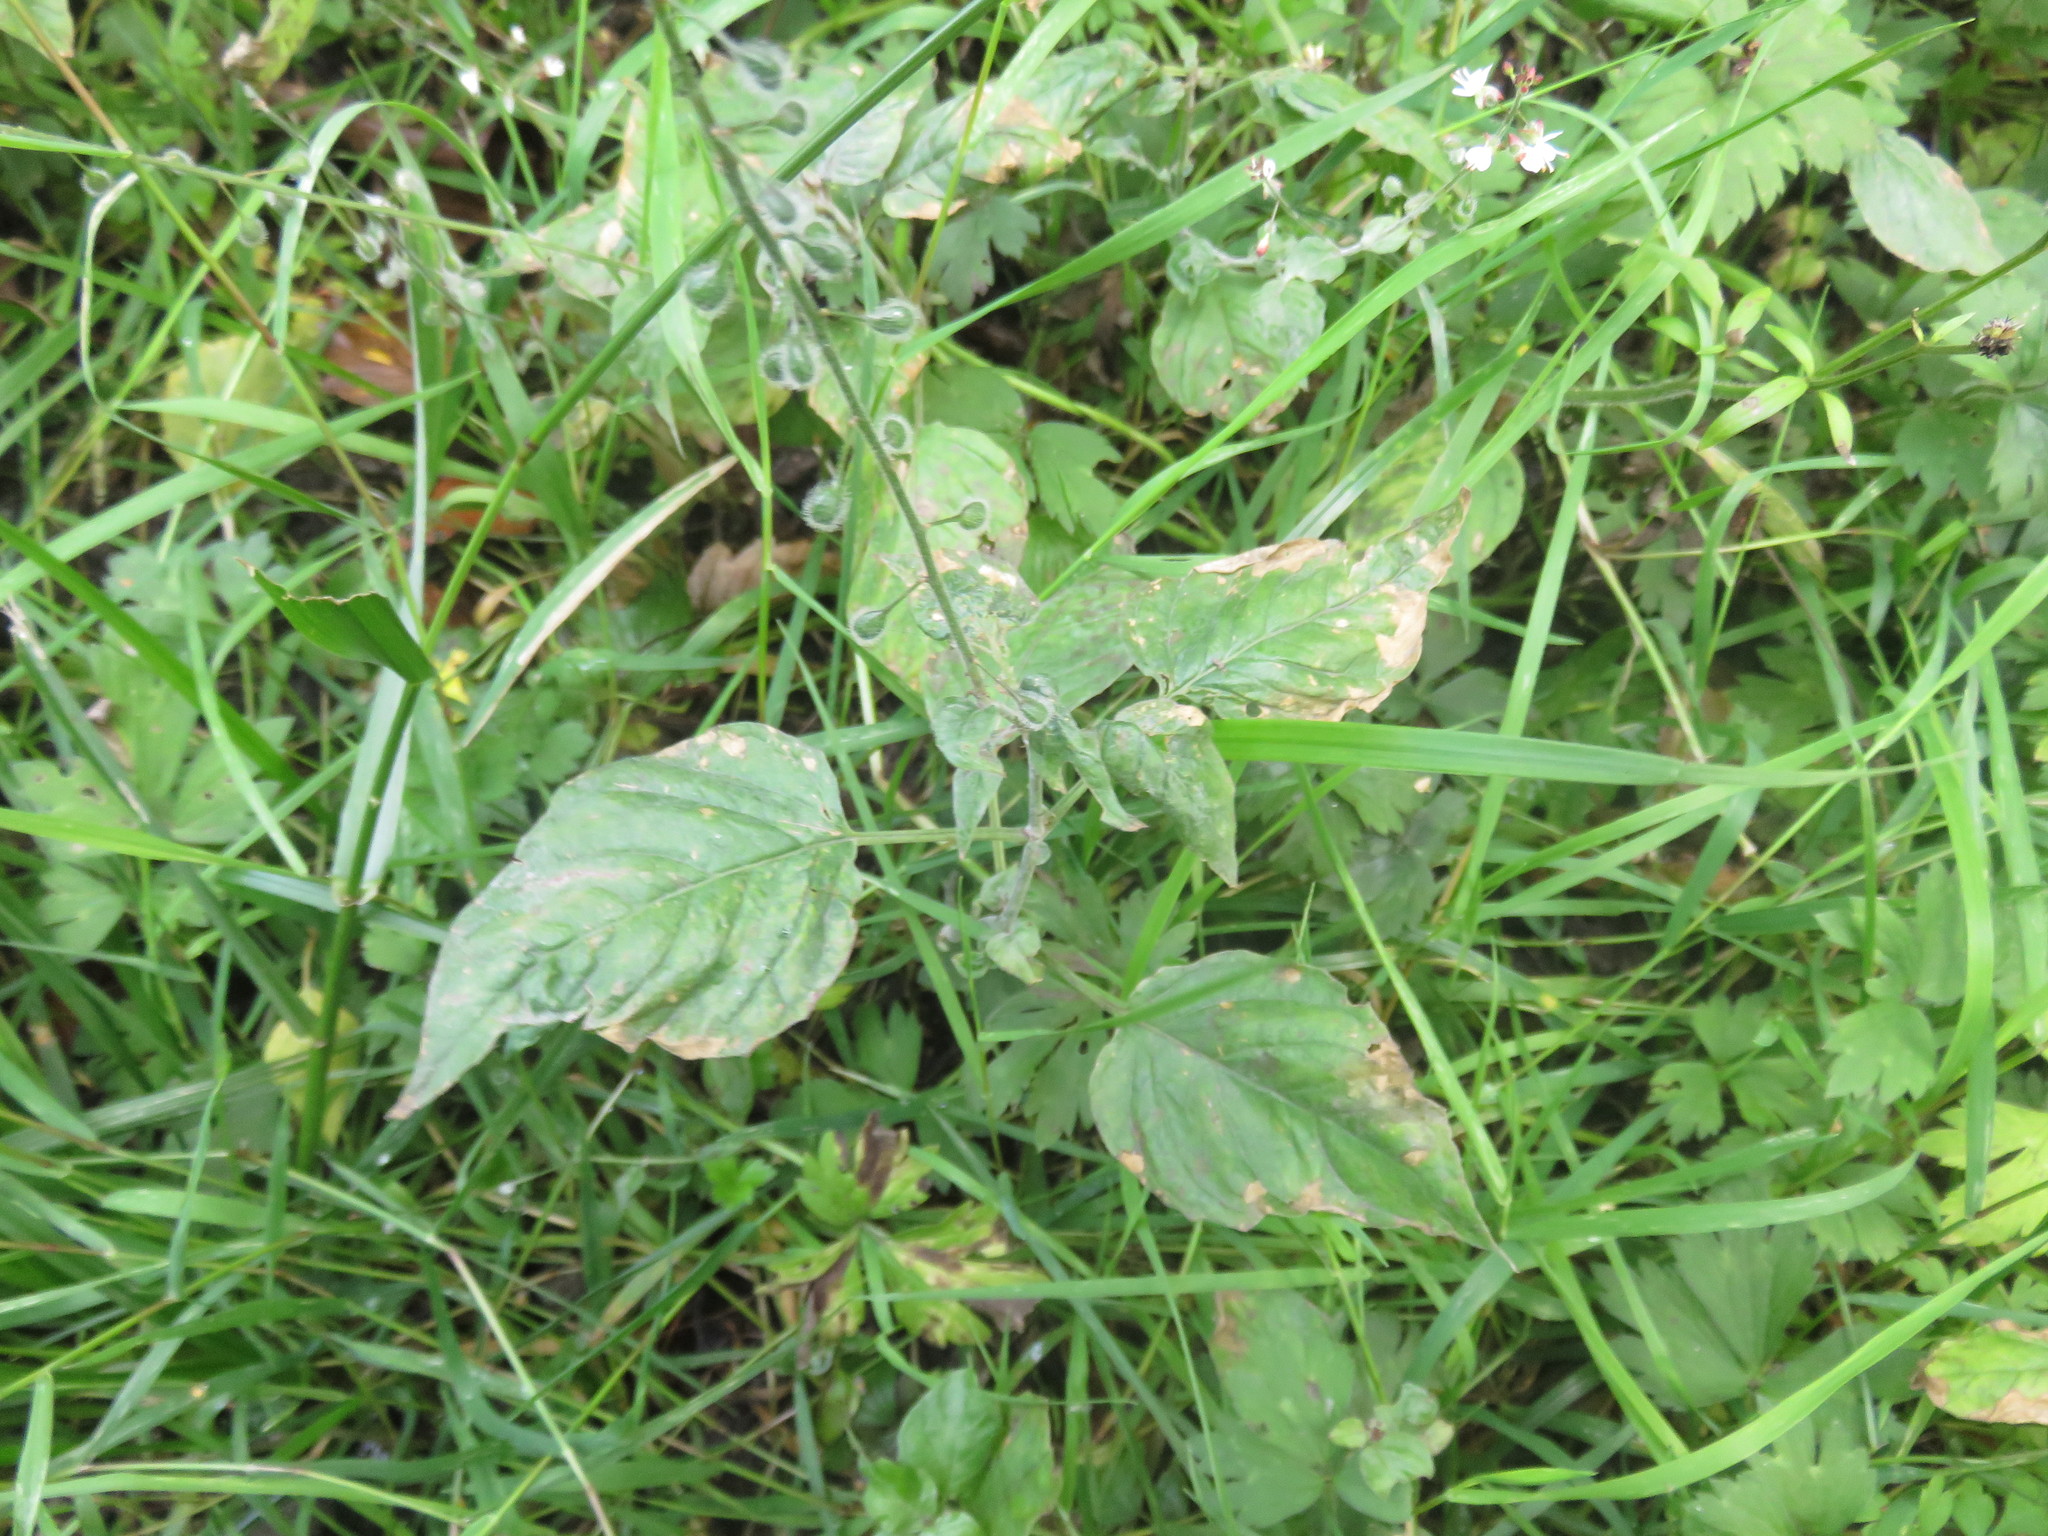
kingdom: Plantae
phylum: Tracheophyta
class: Magnoliopsida
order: Myrtales
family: Onagraceae
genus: Circaea
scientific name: Circaea lutetiana
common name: Enchanter's-nightshade
